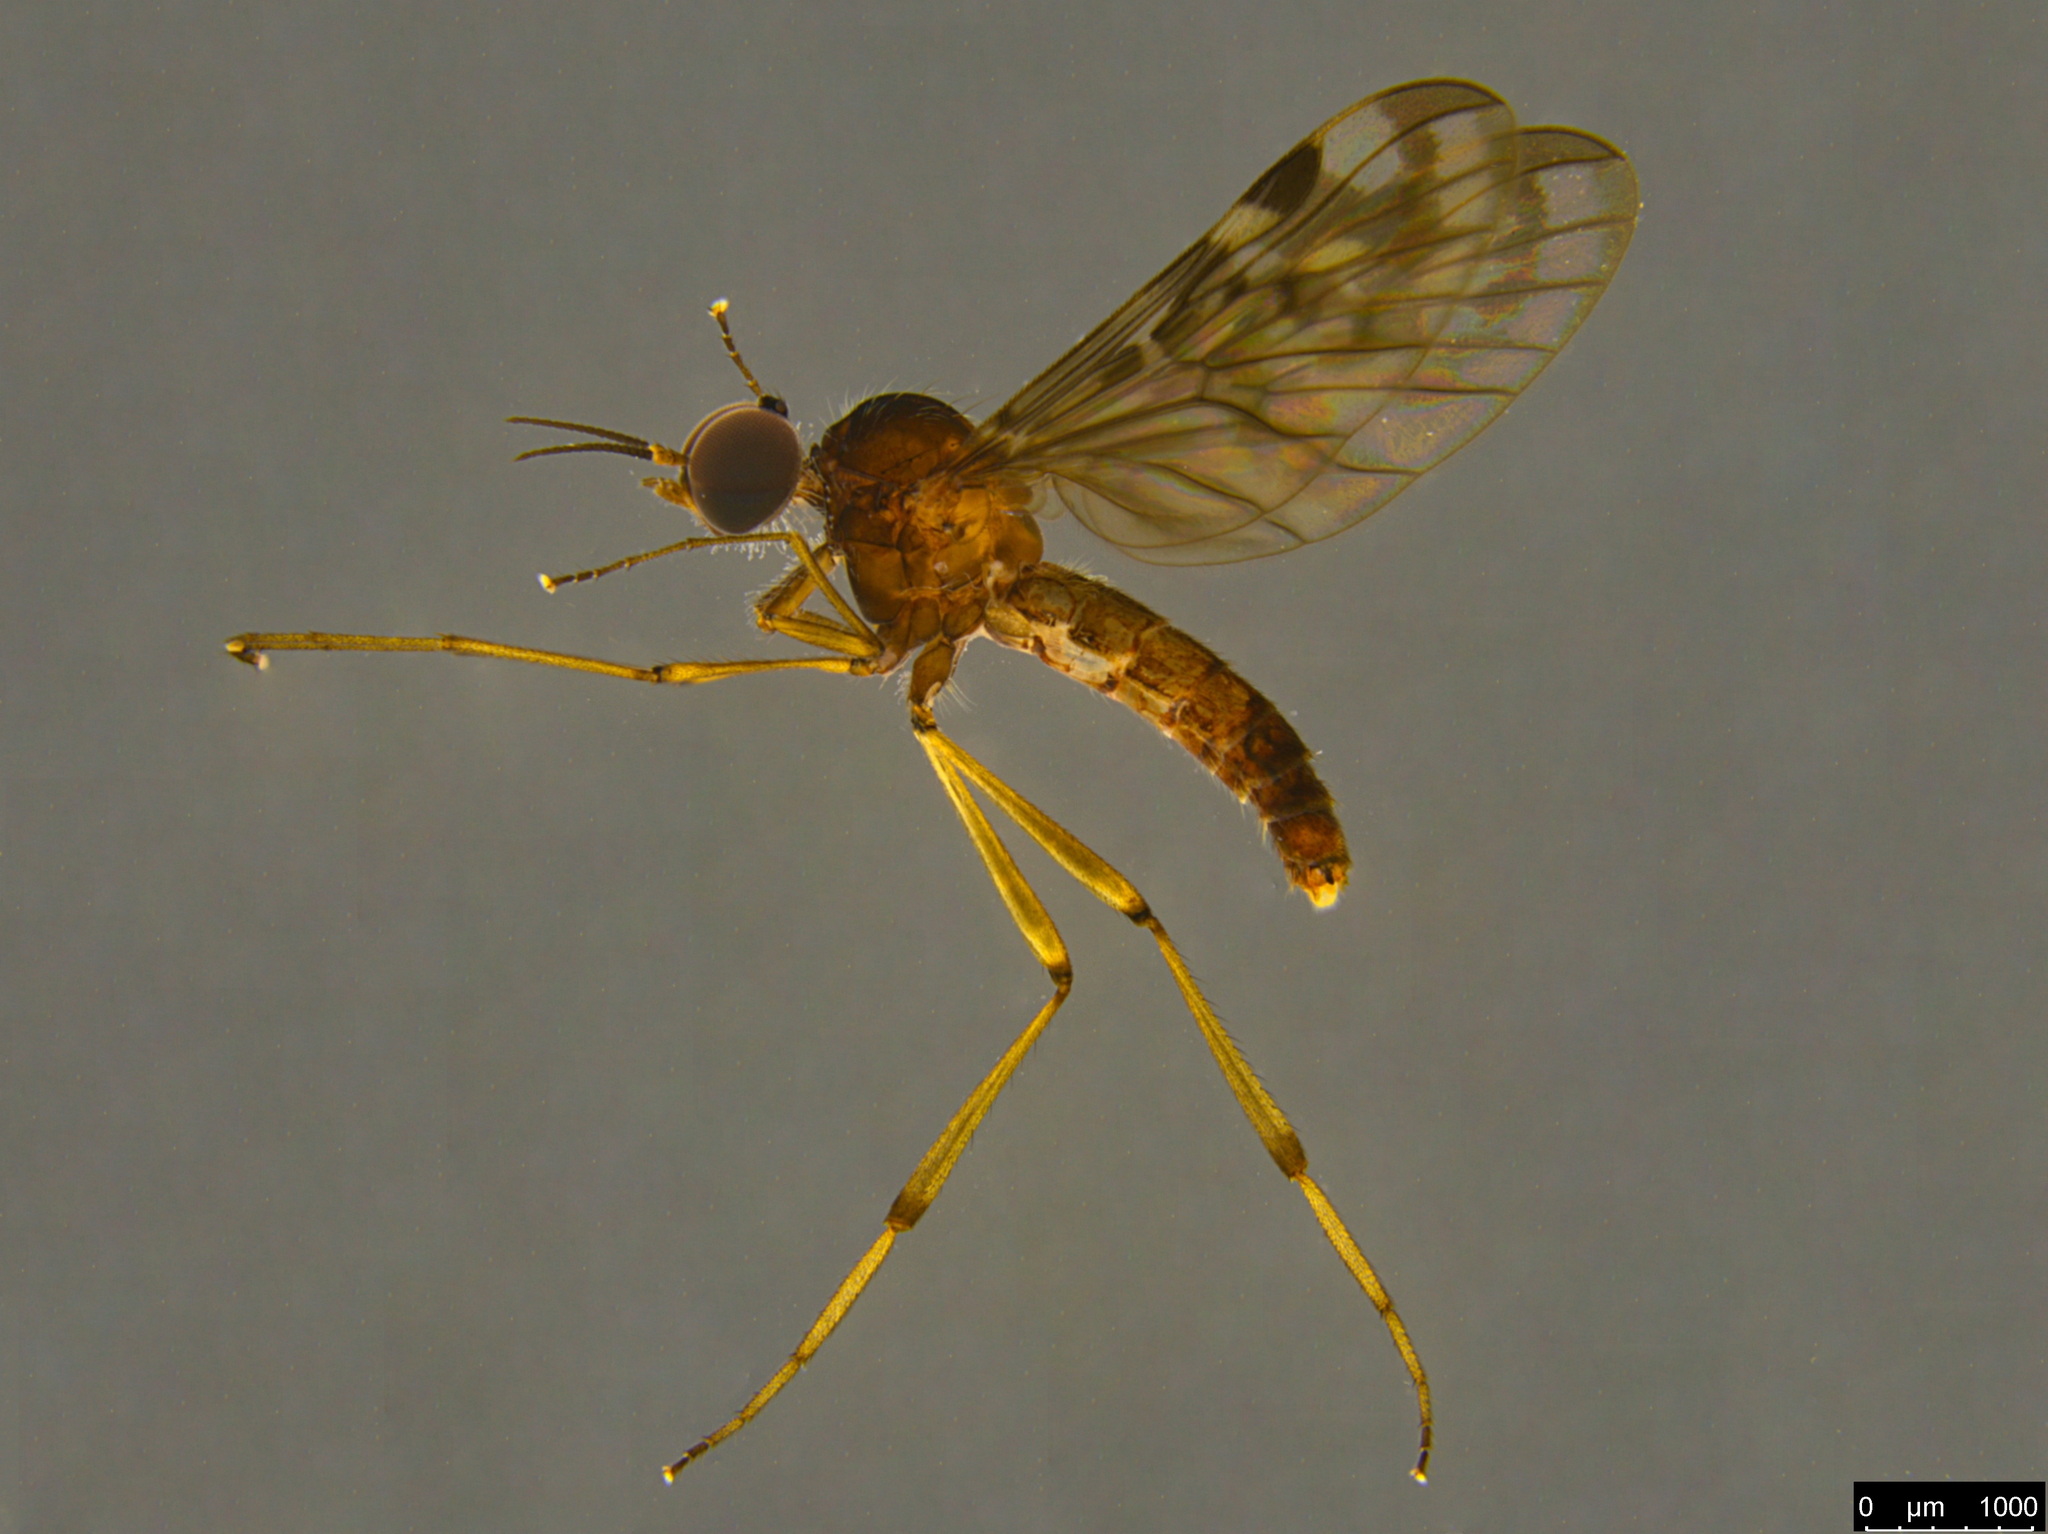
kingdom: Animalia
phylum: Arthropoda
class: Insecta
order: Diptera
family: Anisopodidae
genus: Sylvicola
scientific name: Sylvicola dubius
